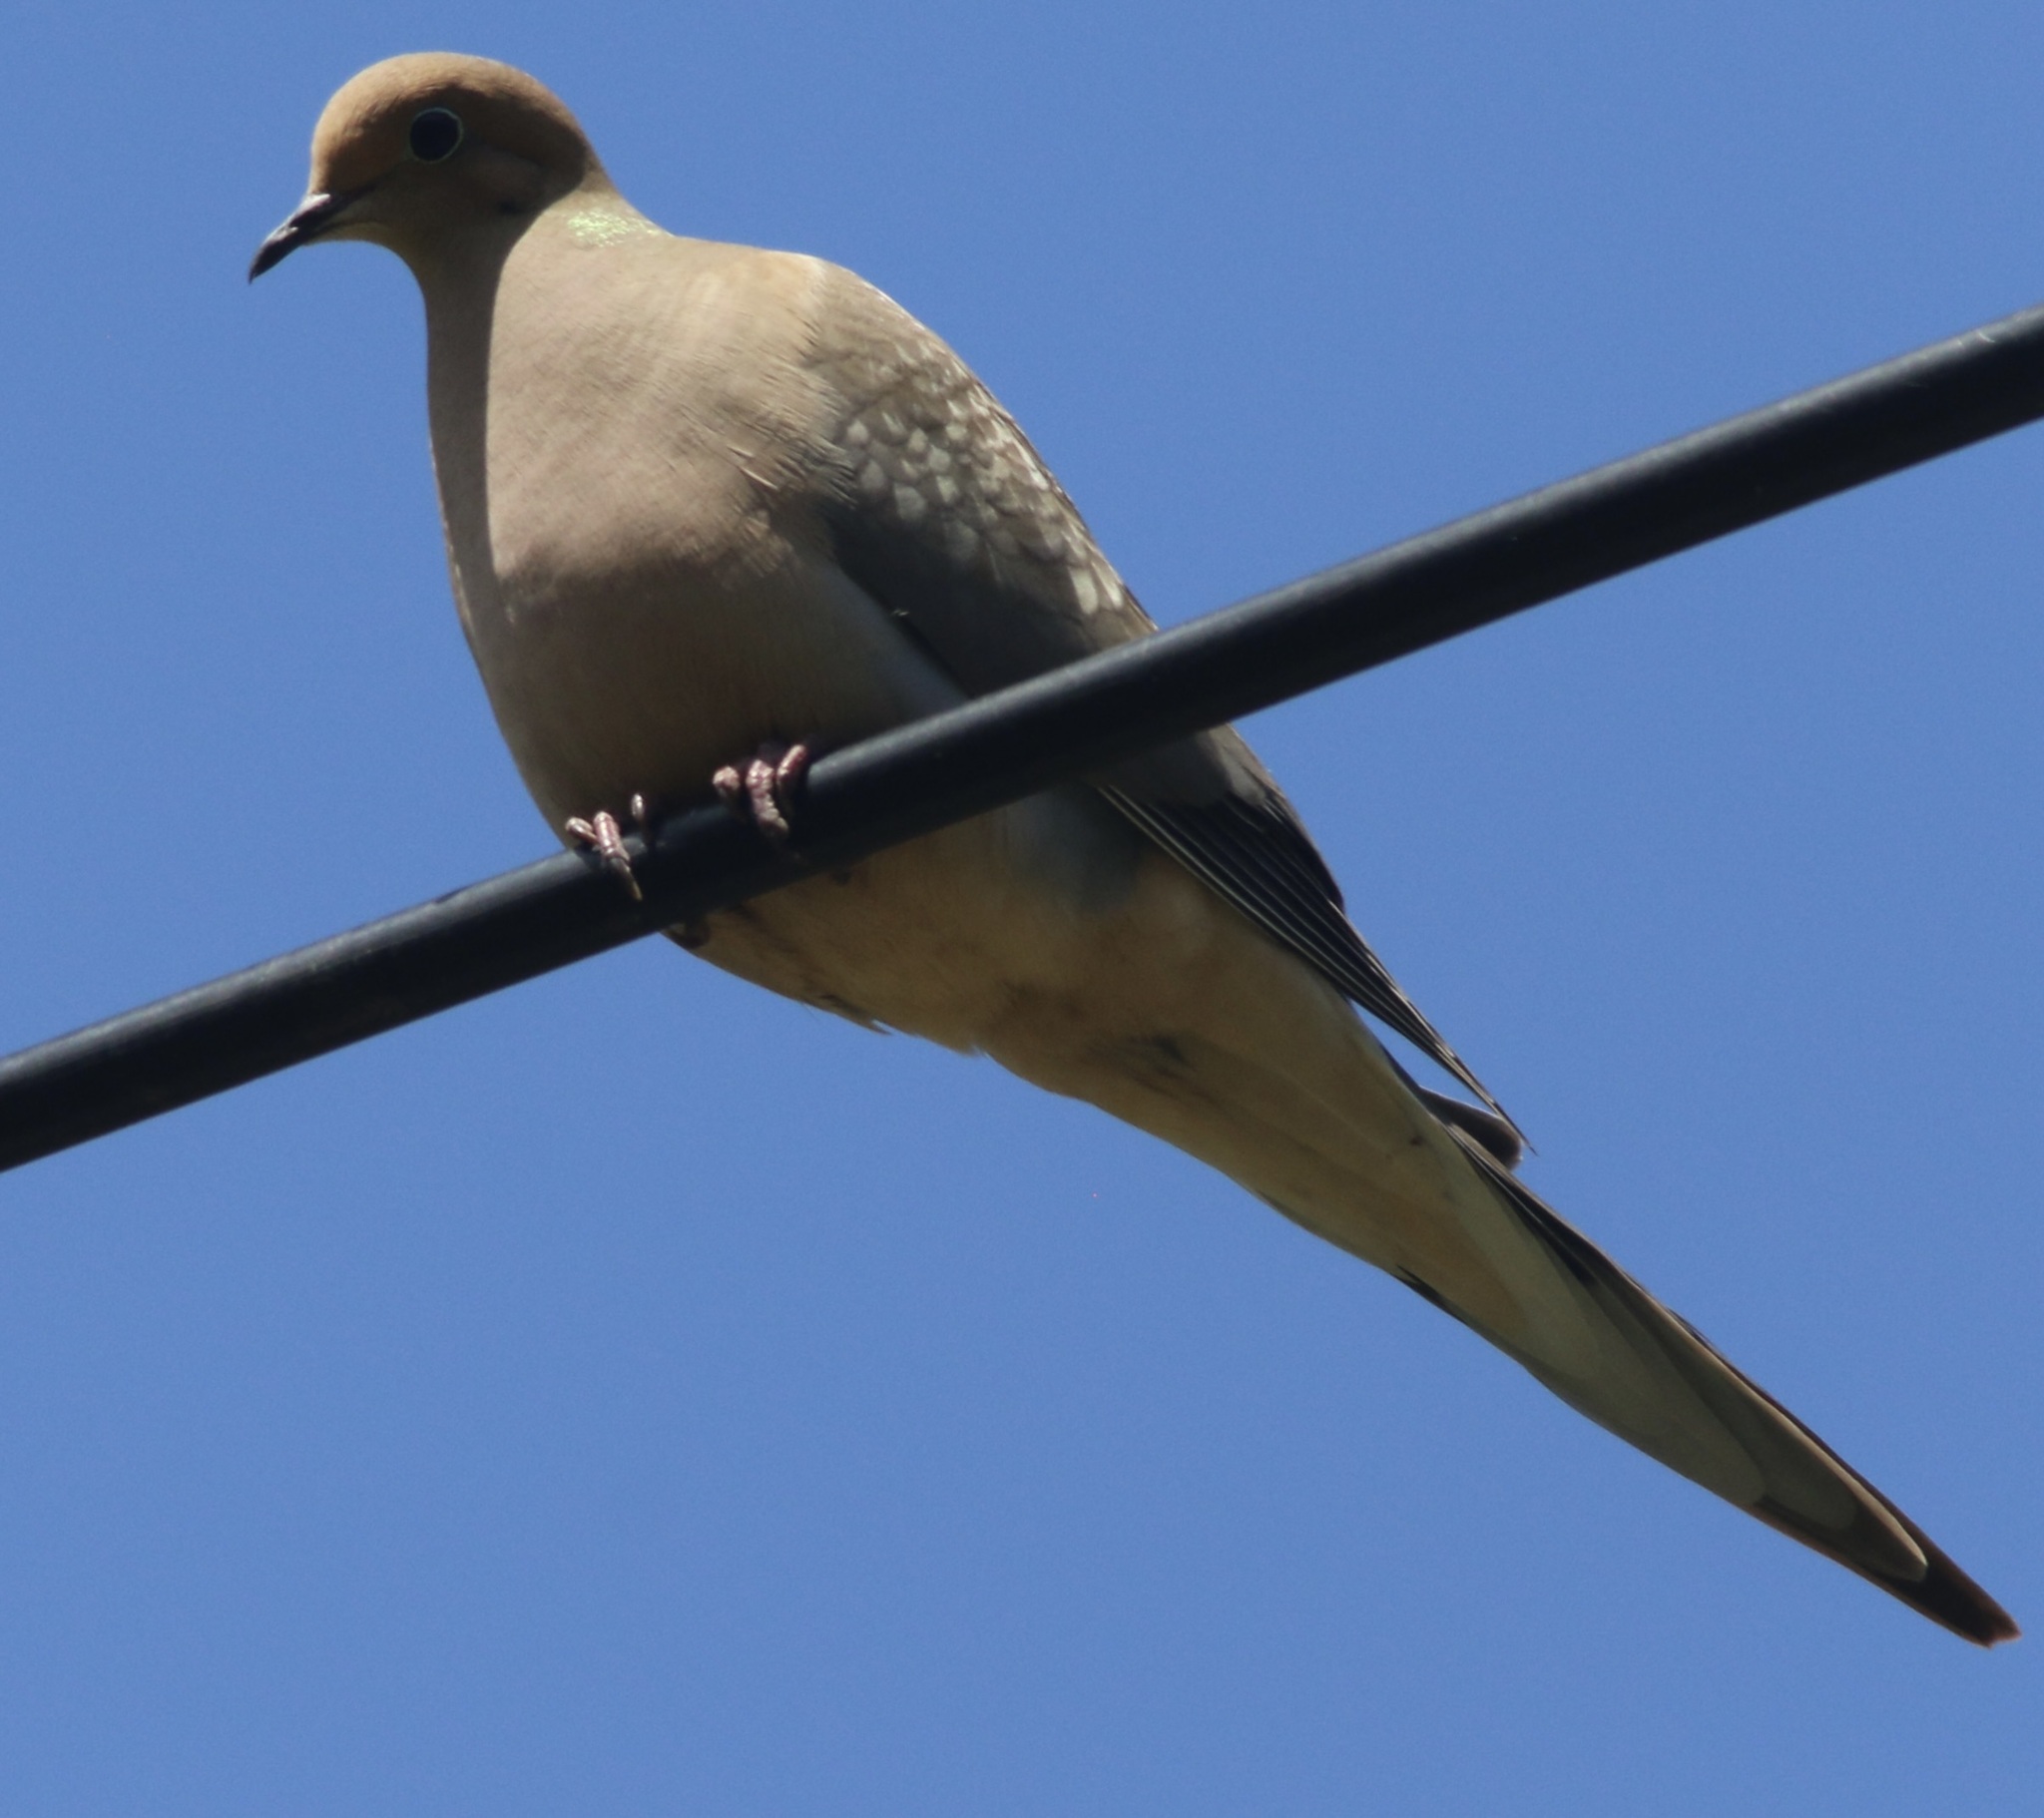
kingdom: Animalia
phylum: Chordata
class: Aves
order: Columbiformes
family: Columbidae
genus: Zenaida
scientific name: Zenaida macroura
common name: Mourning dove
